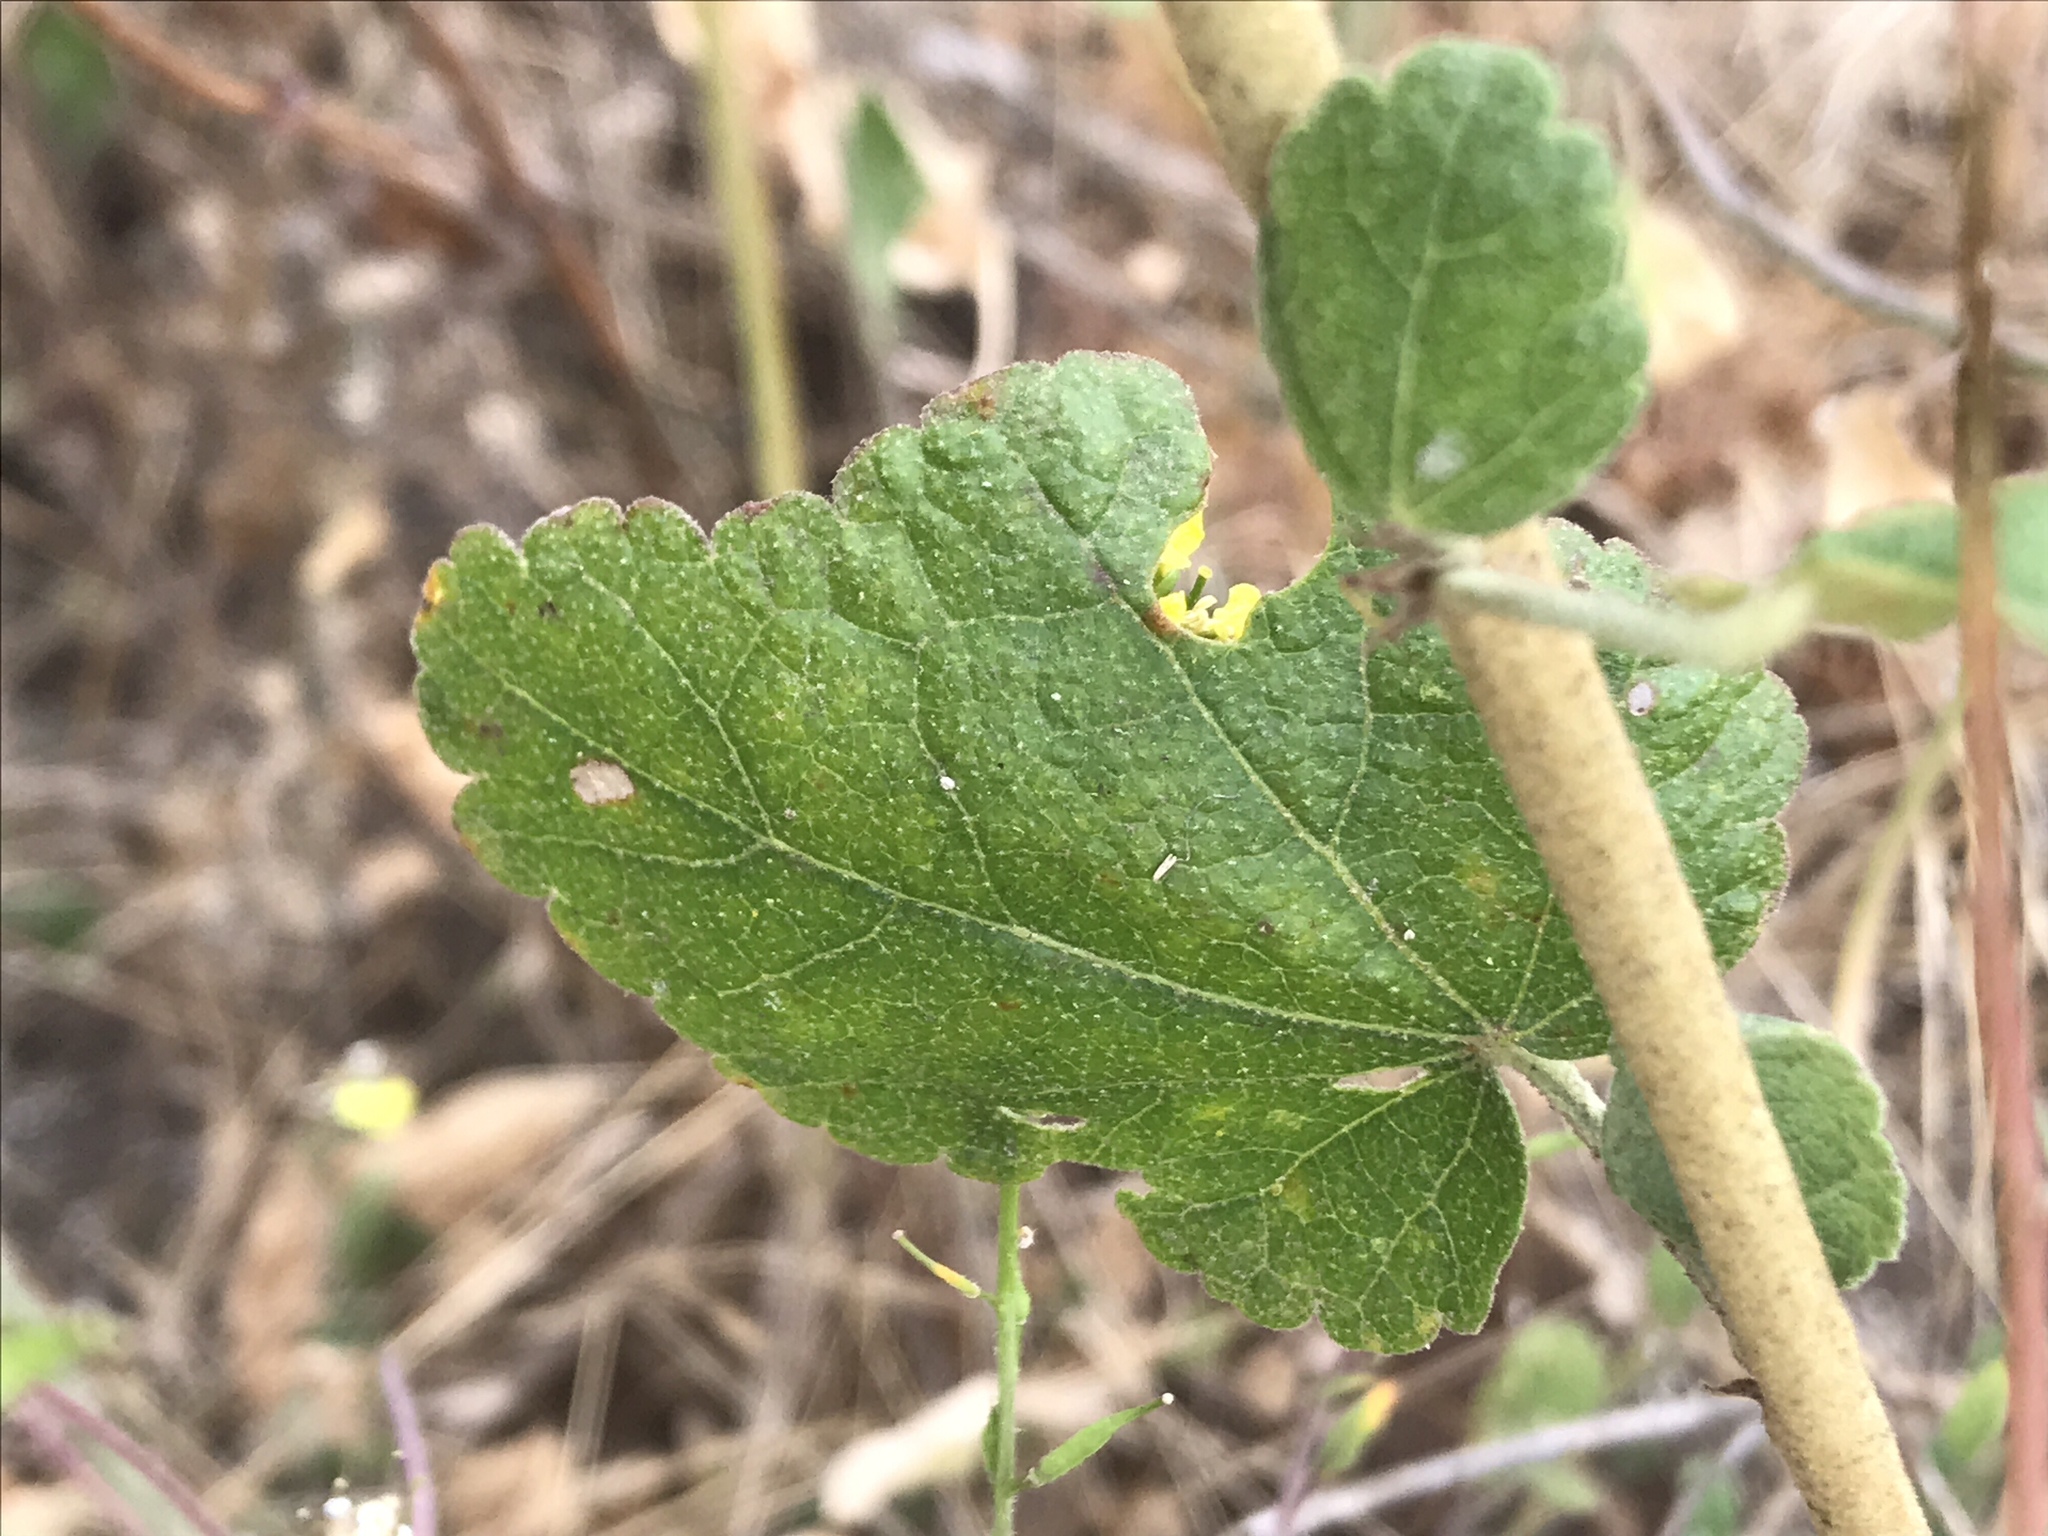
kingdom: Plantae
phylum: Tracheophyta
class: Magnoliopsida
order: Malvales
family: Malvaceae
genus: Malacothamnus
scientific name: Malacothamnus fasciculatus
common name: Sant cruz island bush-mallow
